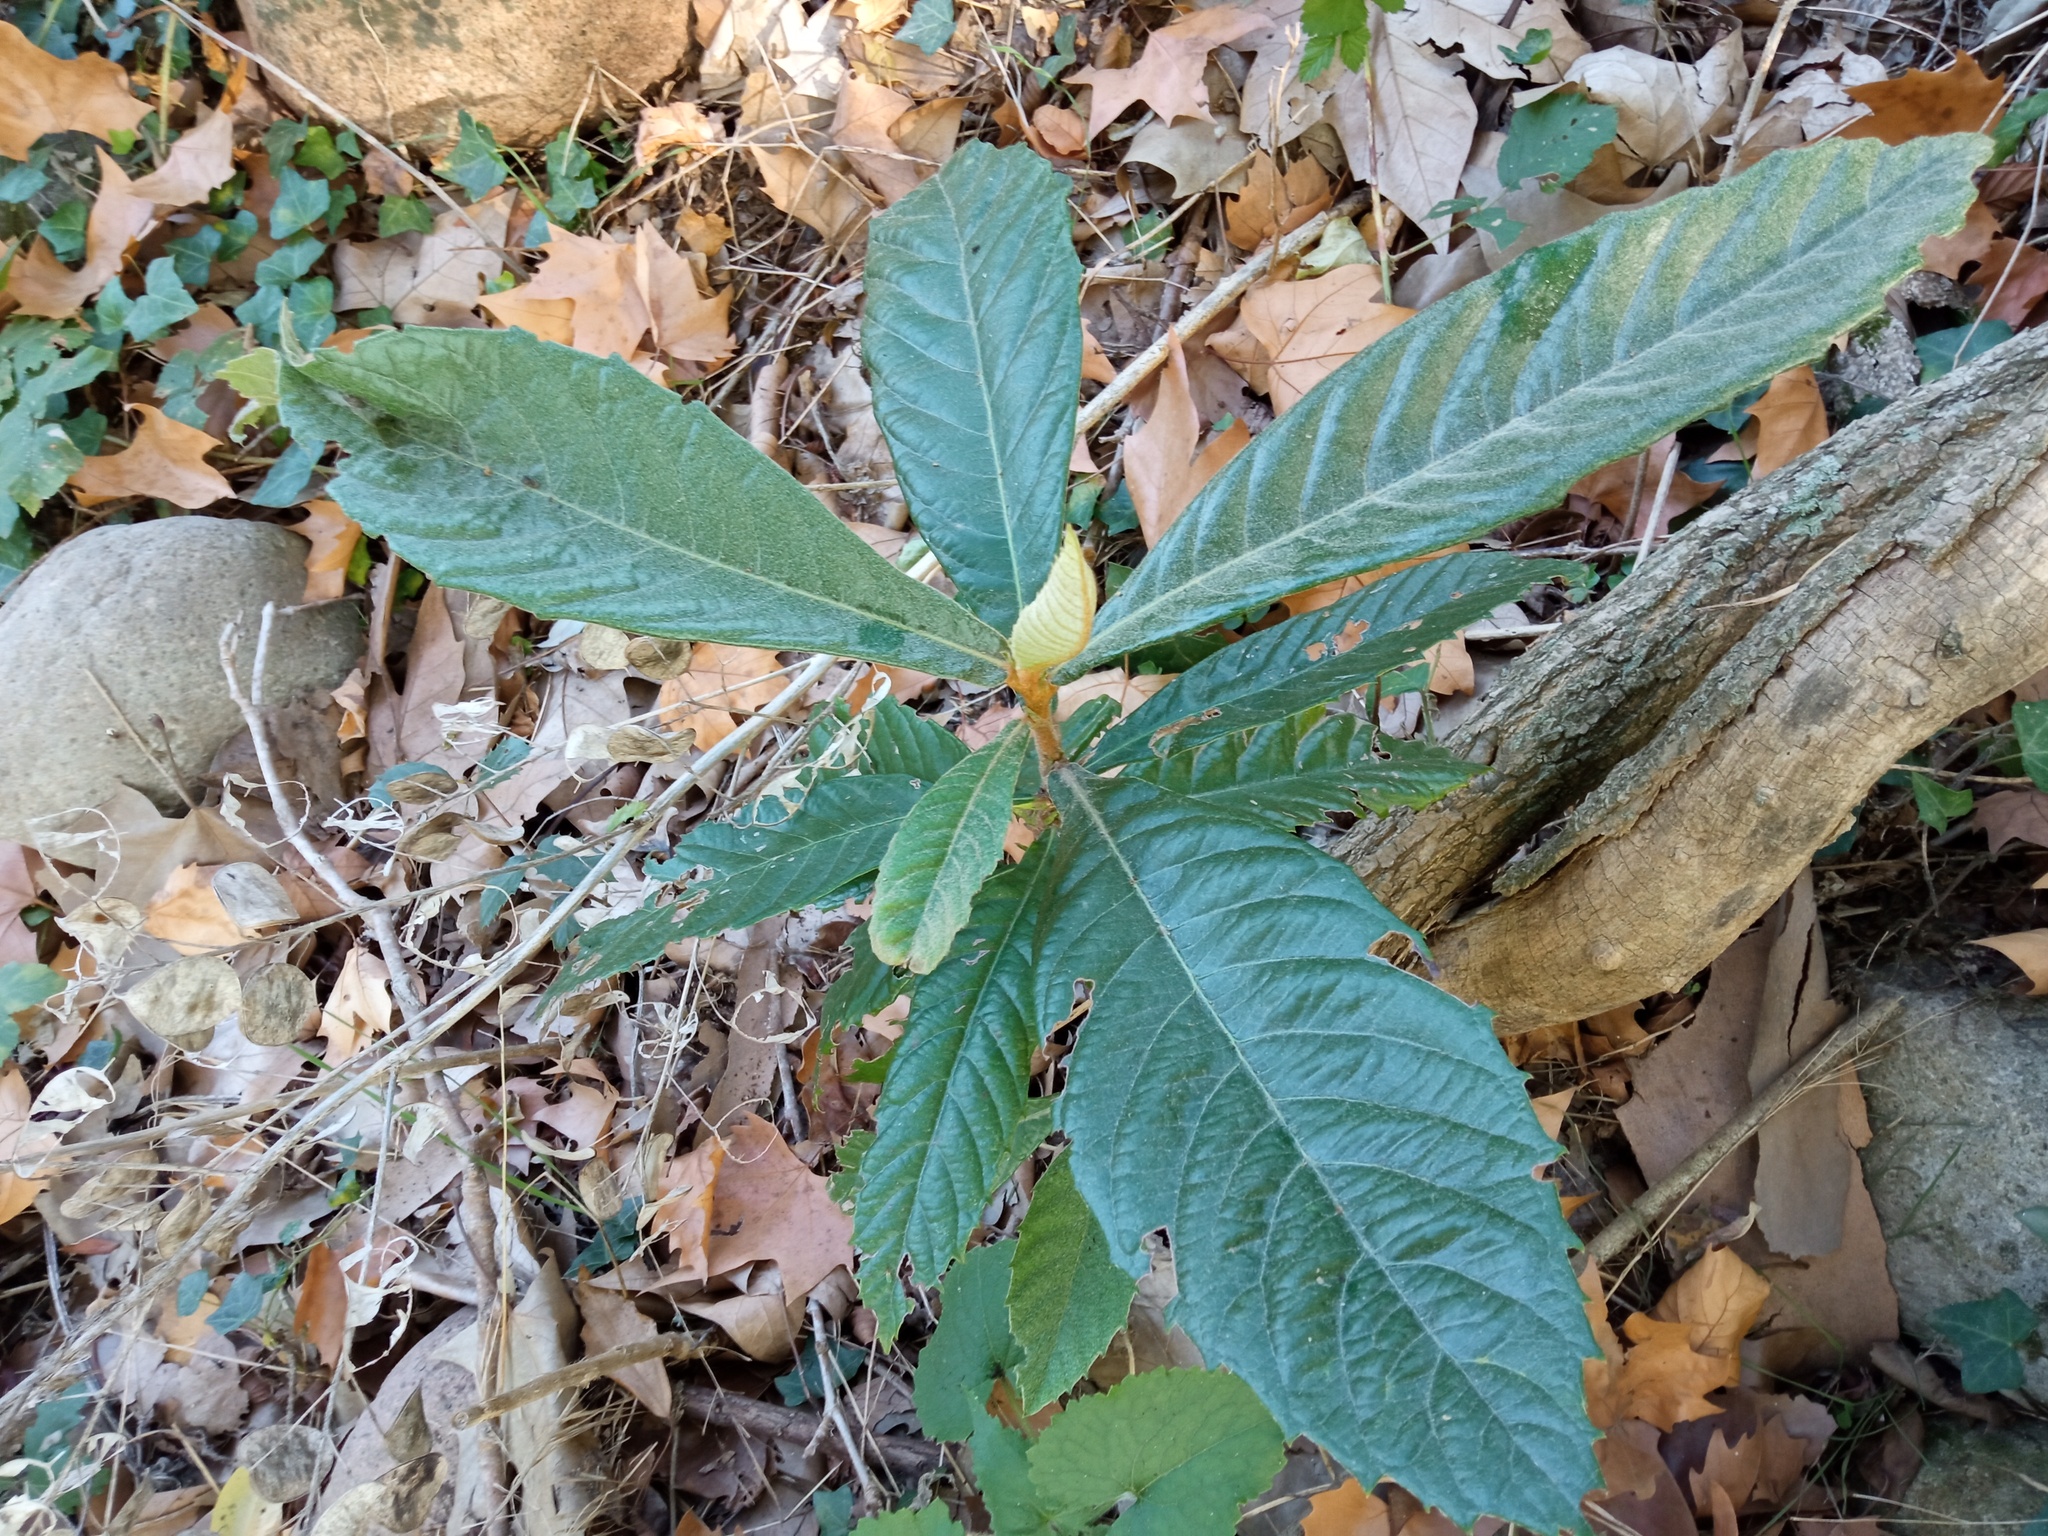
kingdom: Plantae
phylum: Tracheophyta
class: Magnoliopsida
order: Rosales
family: Rosaceae
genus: Rhaphiolepis
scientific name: Rhaphiolepis bibas
